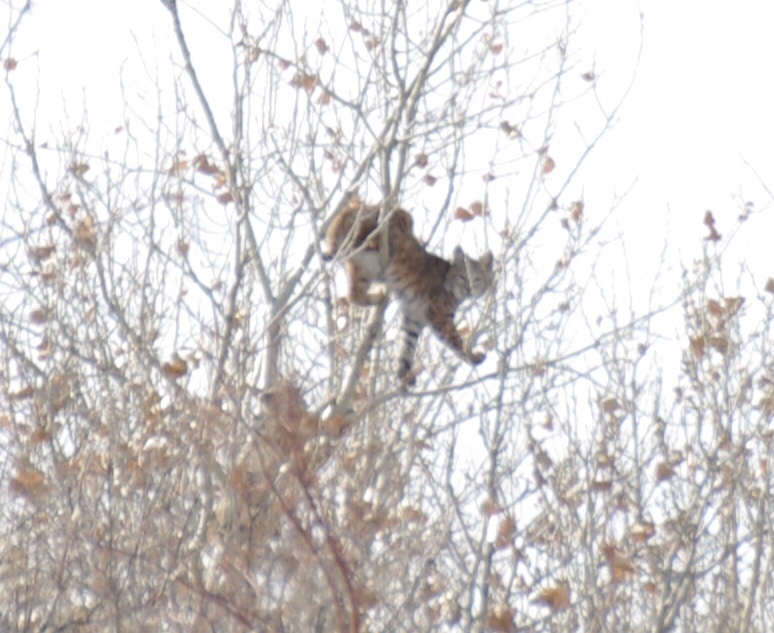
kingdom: Animalia
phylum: Chordata
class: Mammalia
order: Carnivora
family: Felidae
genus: Lynx
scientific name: Lynx rufus
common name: Bobcat
